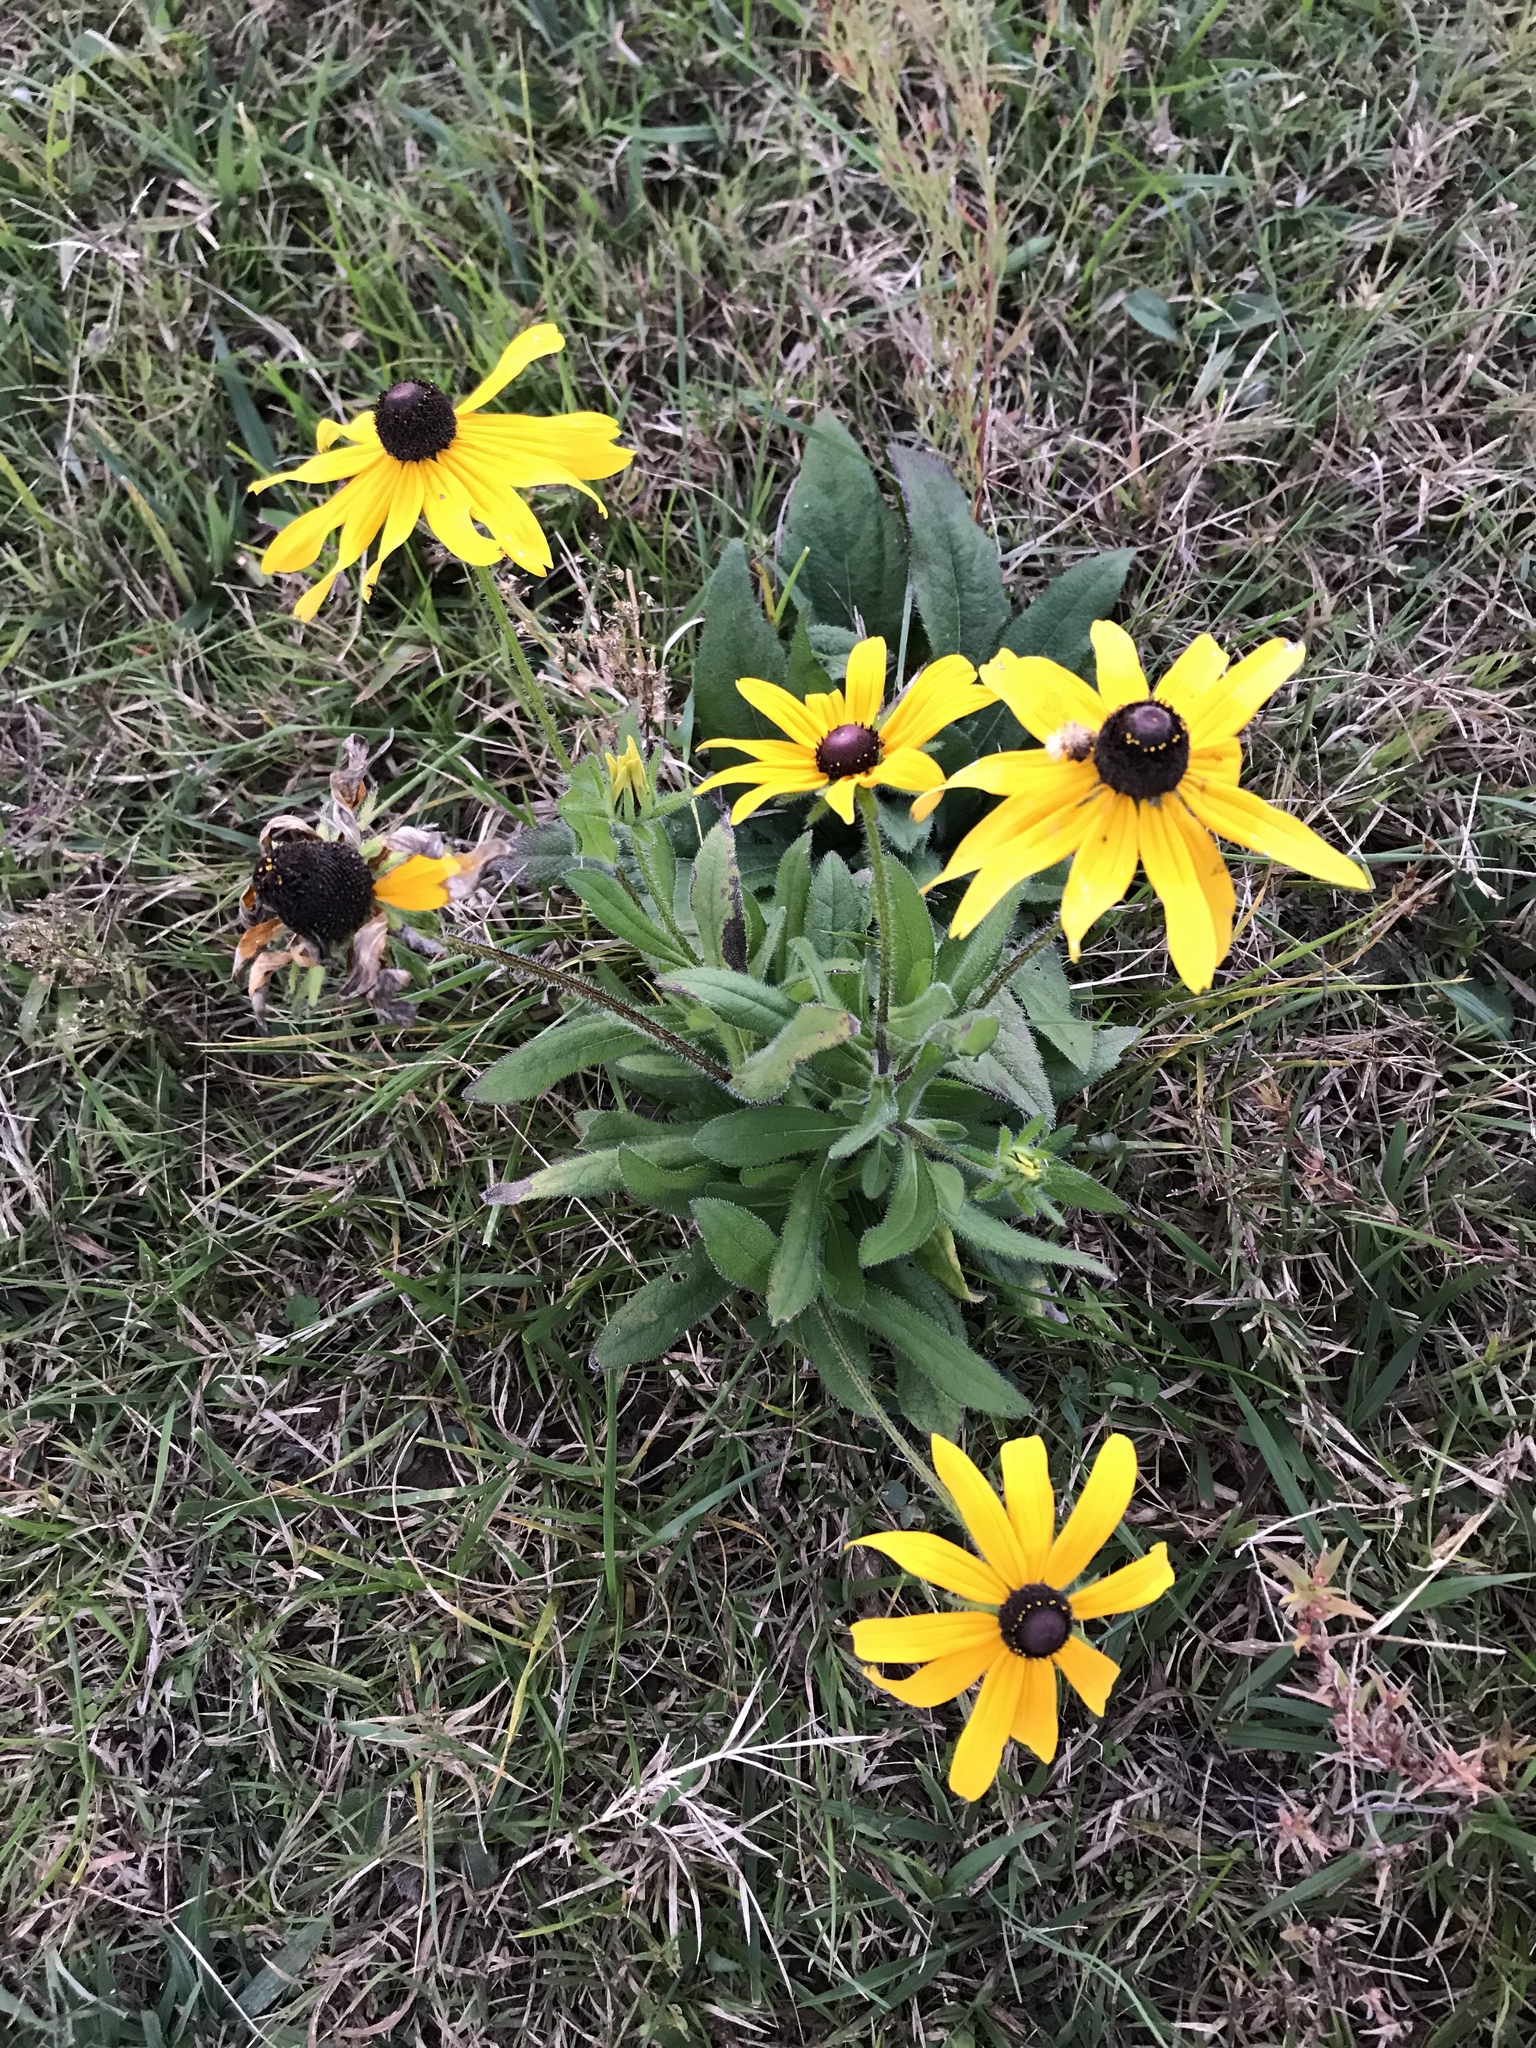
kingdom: Plantae
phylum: Tracheophyta
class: Magnoliopsida
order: Asterales
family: Asteraceae
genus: Rudbeckia
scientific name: Rudbeckia hirta
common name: Black-eyed-susan
